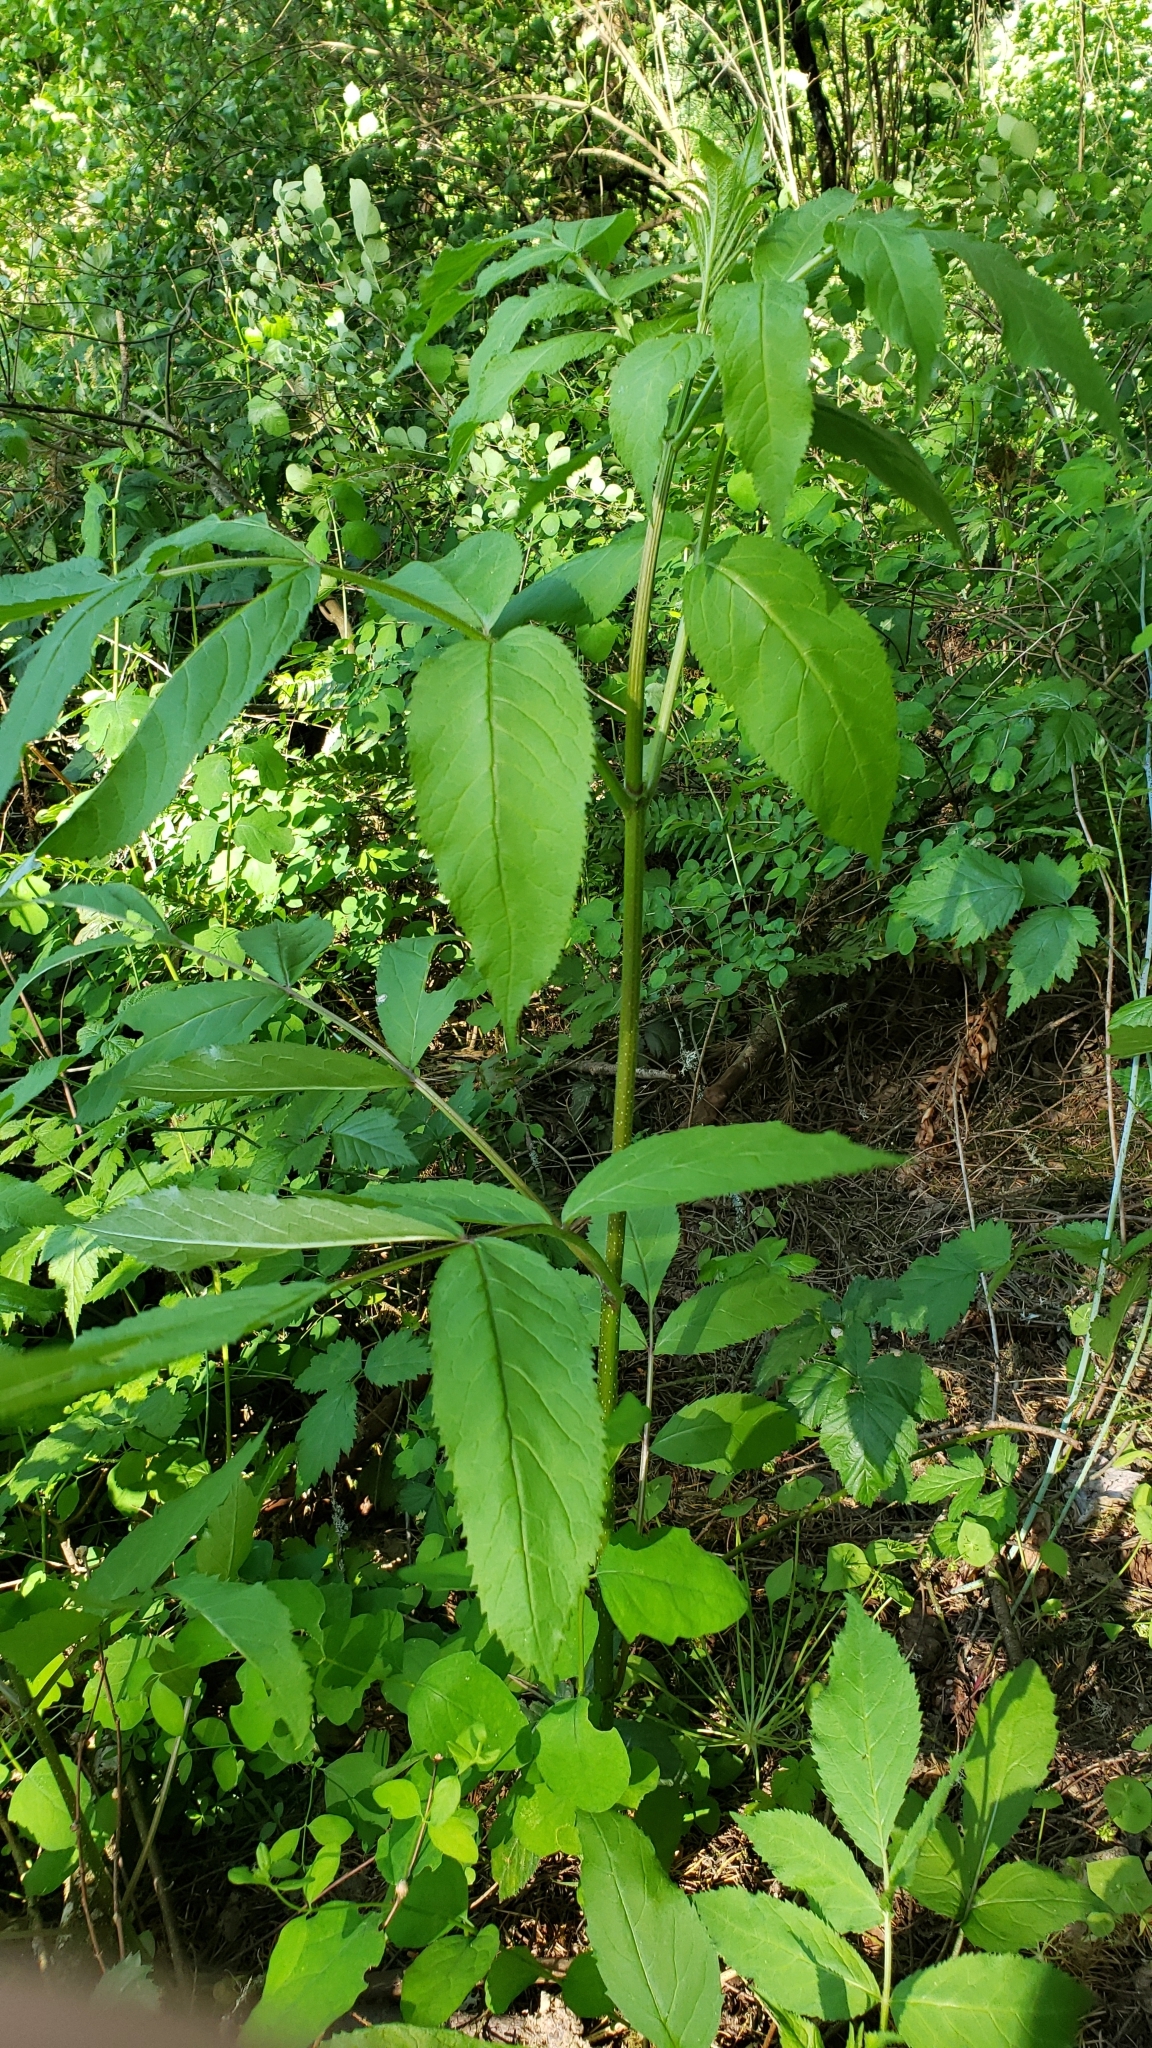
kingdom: Plantae
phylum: Tracheophyta
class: Magnoliopsida
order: Dipsacales
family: Viburnaceae
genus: Sambucus
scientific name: Sambucus racemosa
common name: Red-berried elder
